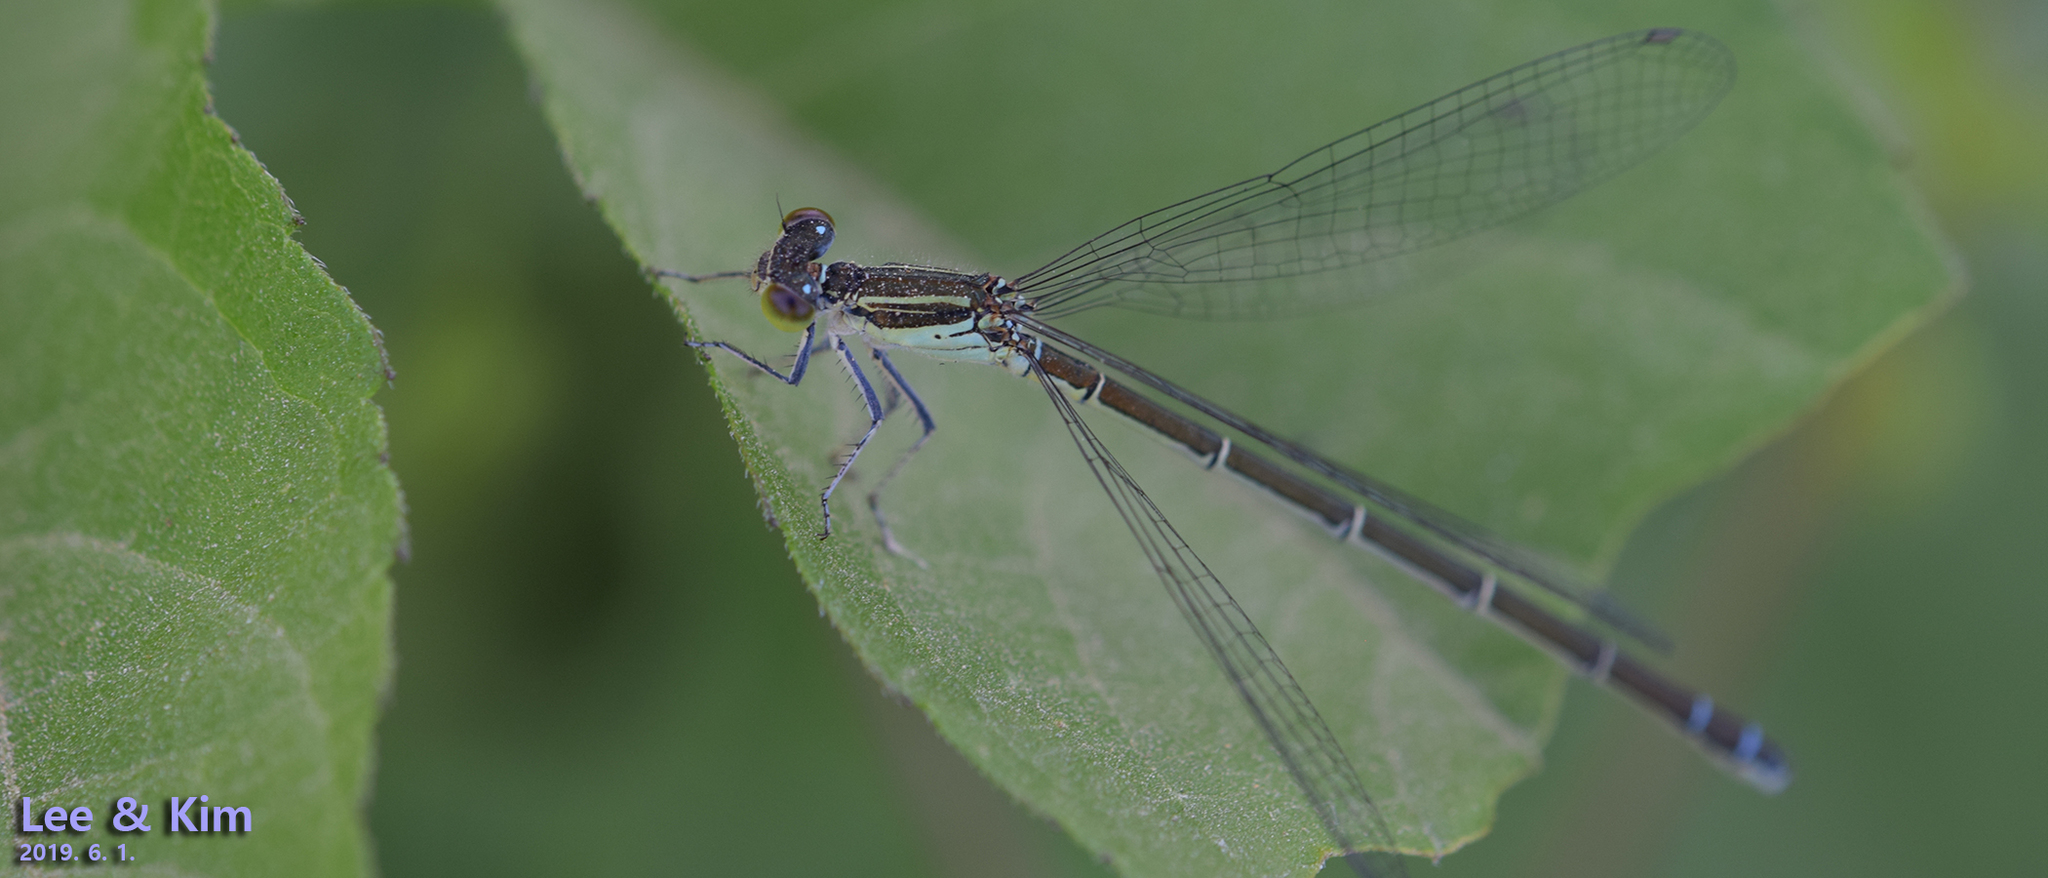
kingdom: Animalia
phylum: Arthropoda
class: Insecta
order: Odonata
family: Coenagrionidae
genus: Paracercion
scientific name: Paracercion calamorum
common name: Dusky lilysquatter
